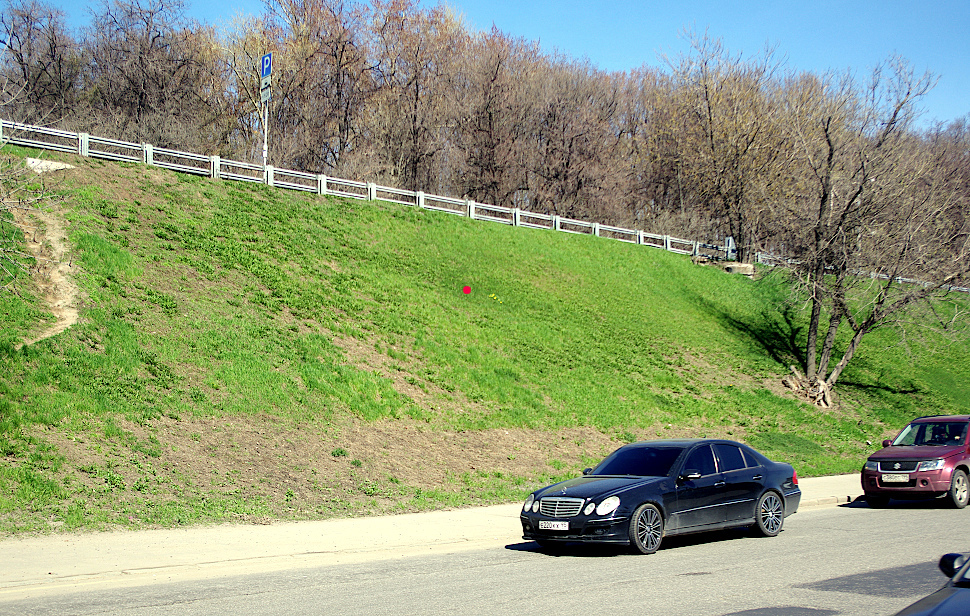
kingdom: Plantae
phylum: Tracheophyta
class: Magnoliopsida
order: Asterales
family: Asteraceae
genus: Achillea
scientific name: Achillea millefolium
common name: Yarrow
